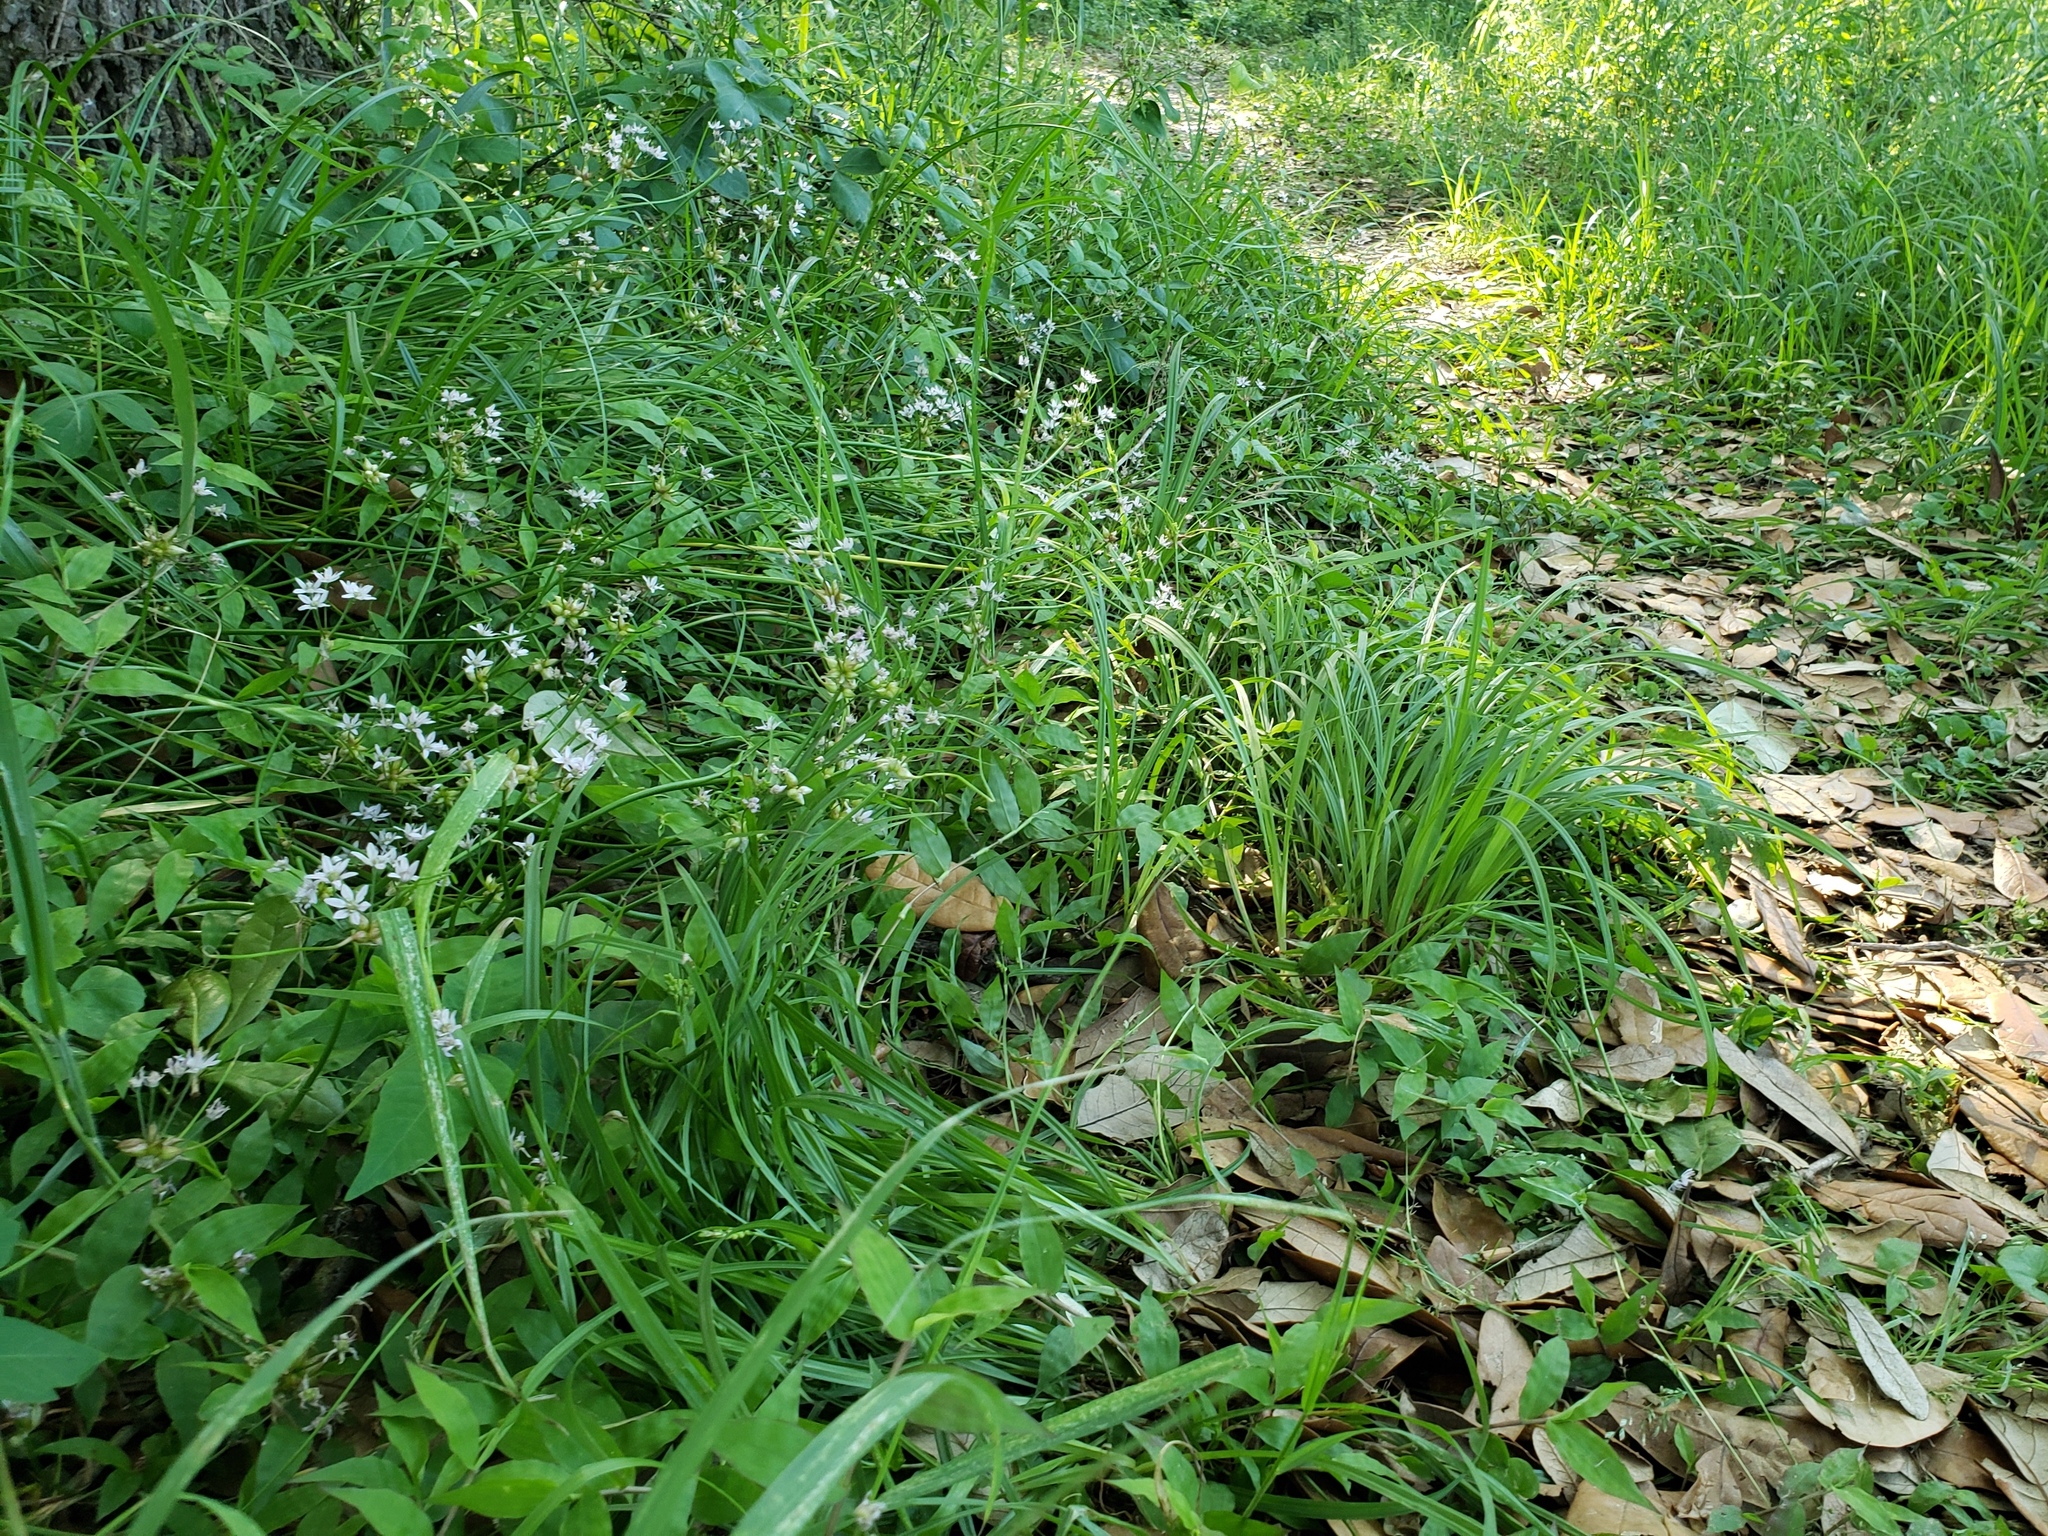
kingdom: Plantae
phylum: Tracheophyta
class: Liliopsida
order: Asparagales
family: Amaryllidaceae
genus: Allium
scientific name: Allium canadense
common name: Meadow garlic
